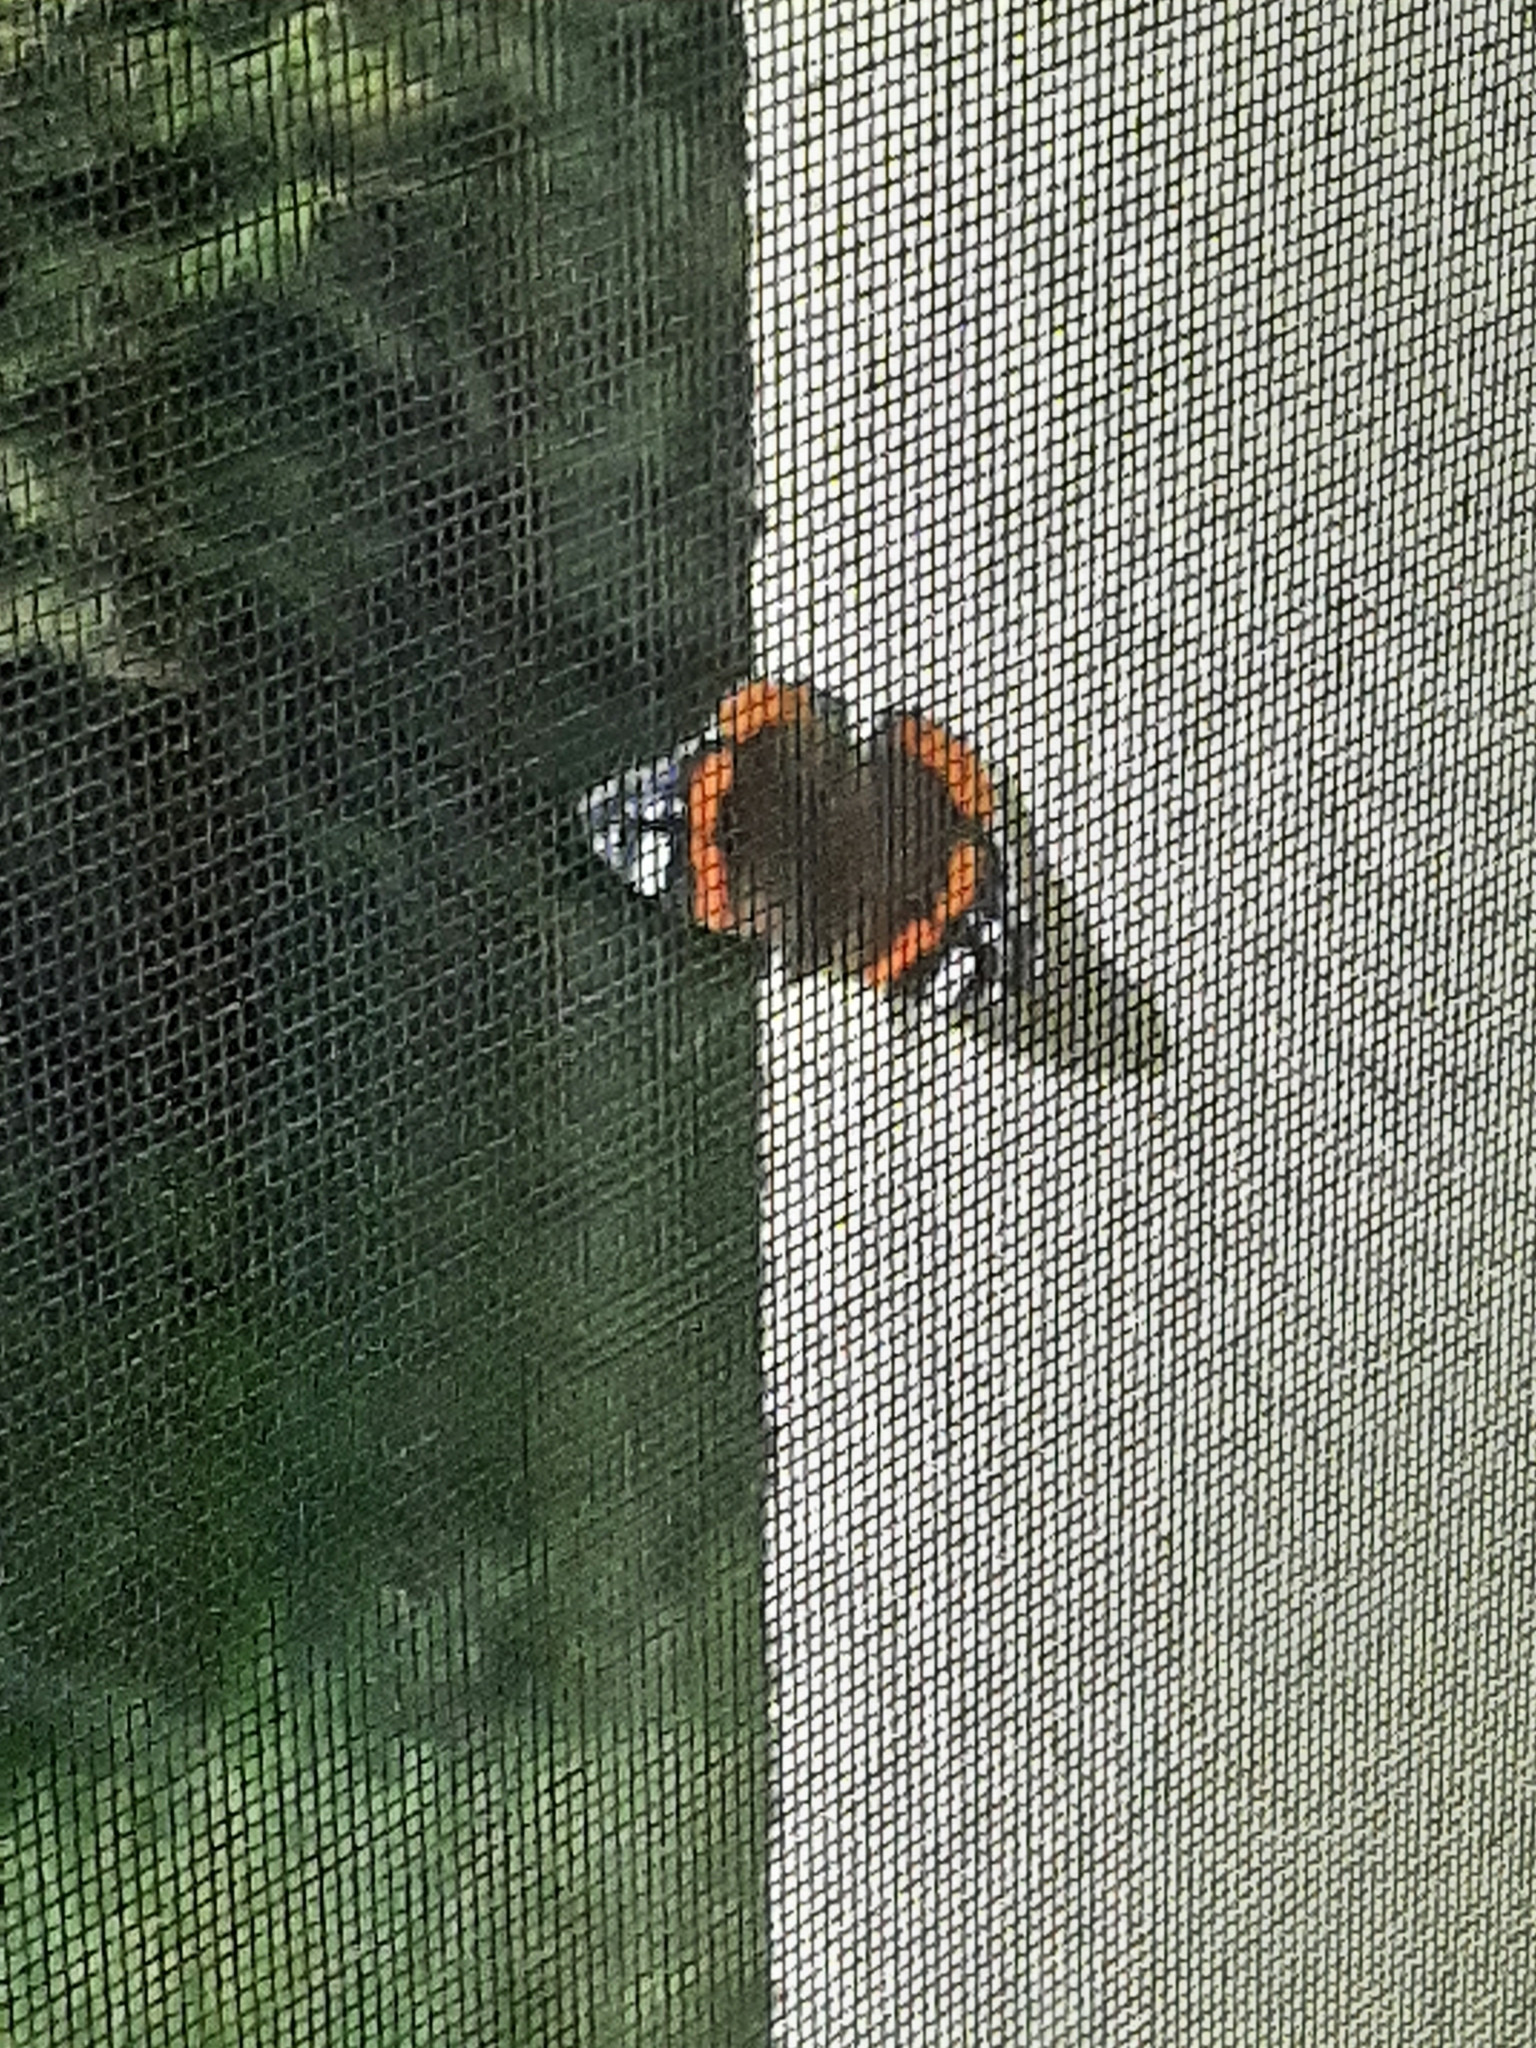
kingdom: Animalia
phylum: Arthropoda
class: Insecta
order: Lepidoptera
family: Nymphalidae
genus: Vanessa
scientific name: Vanessa atalanta
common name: Red admiral
